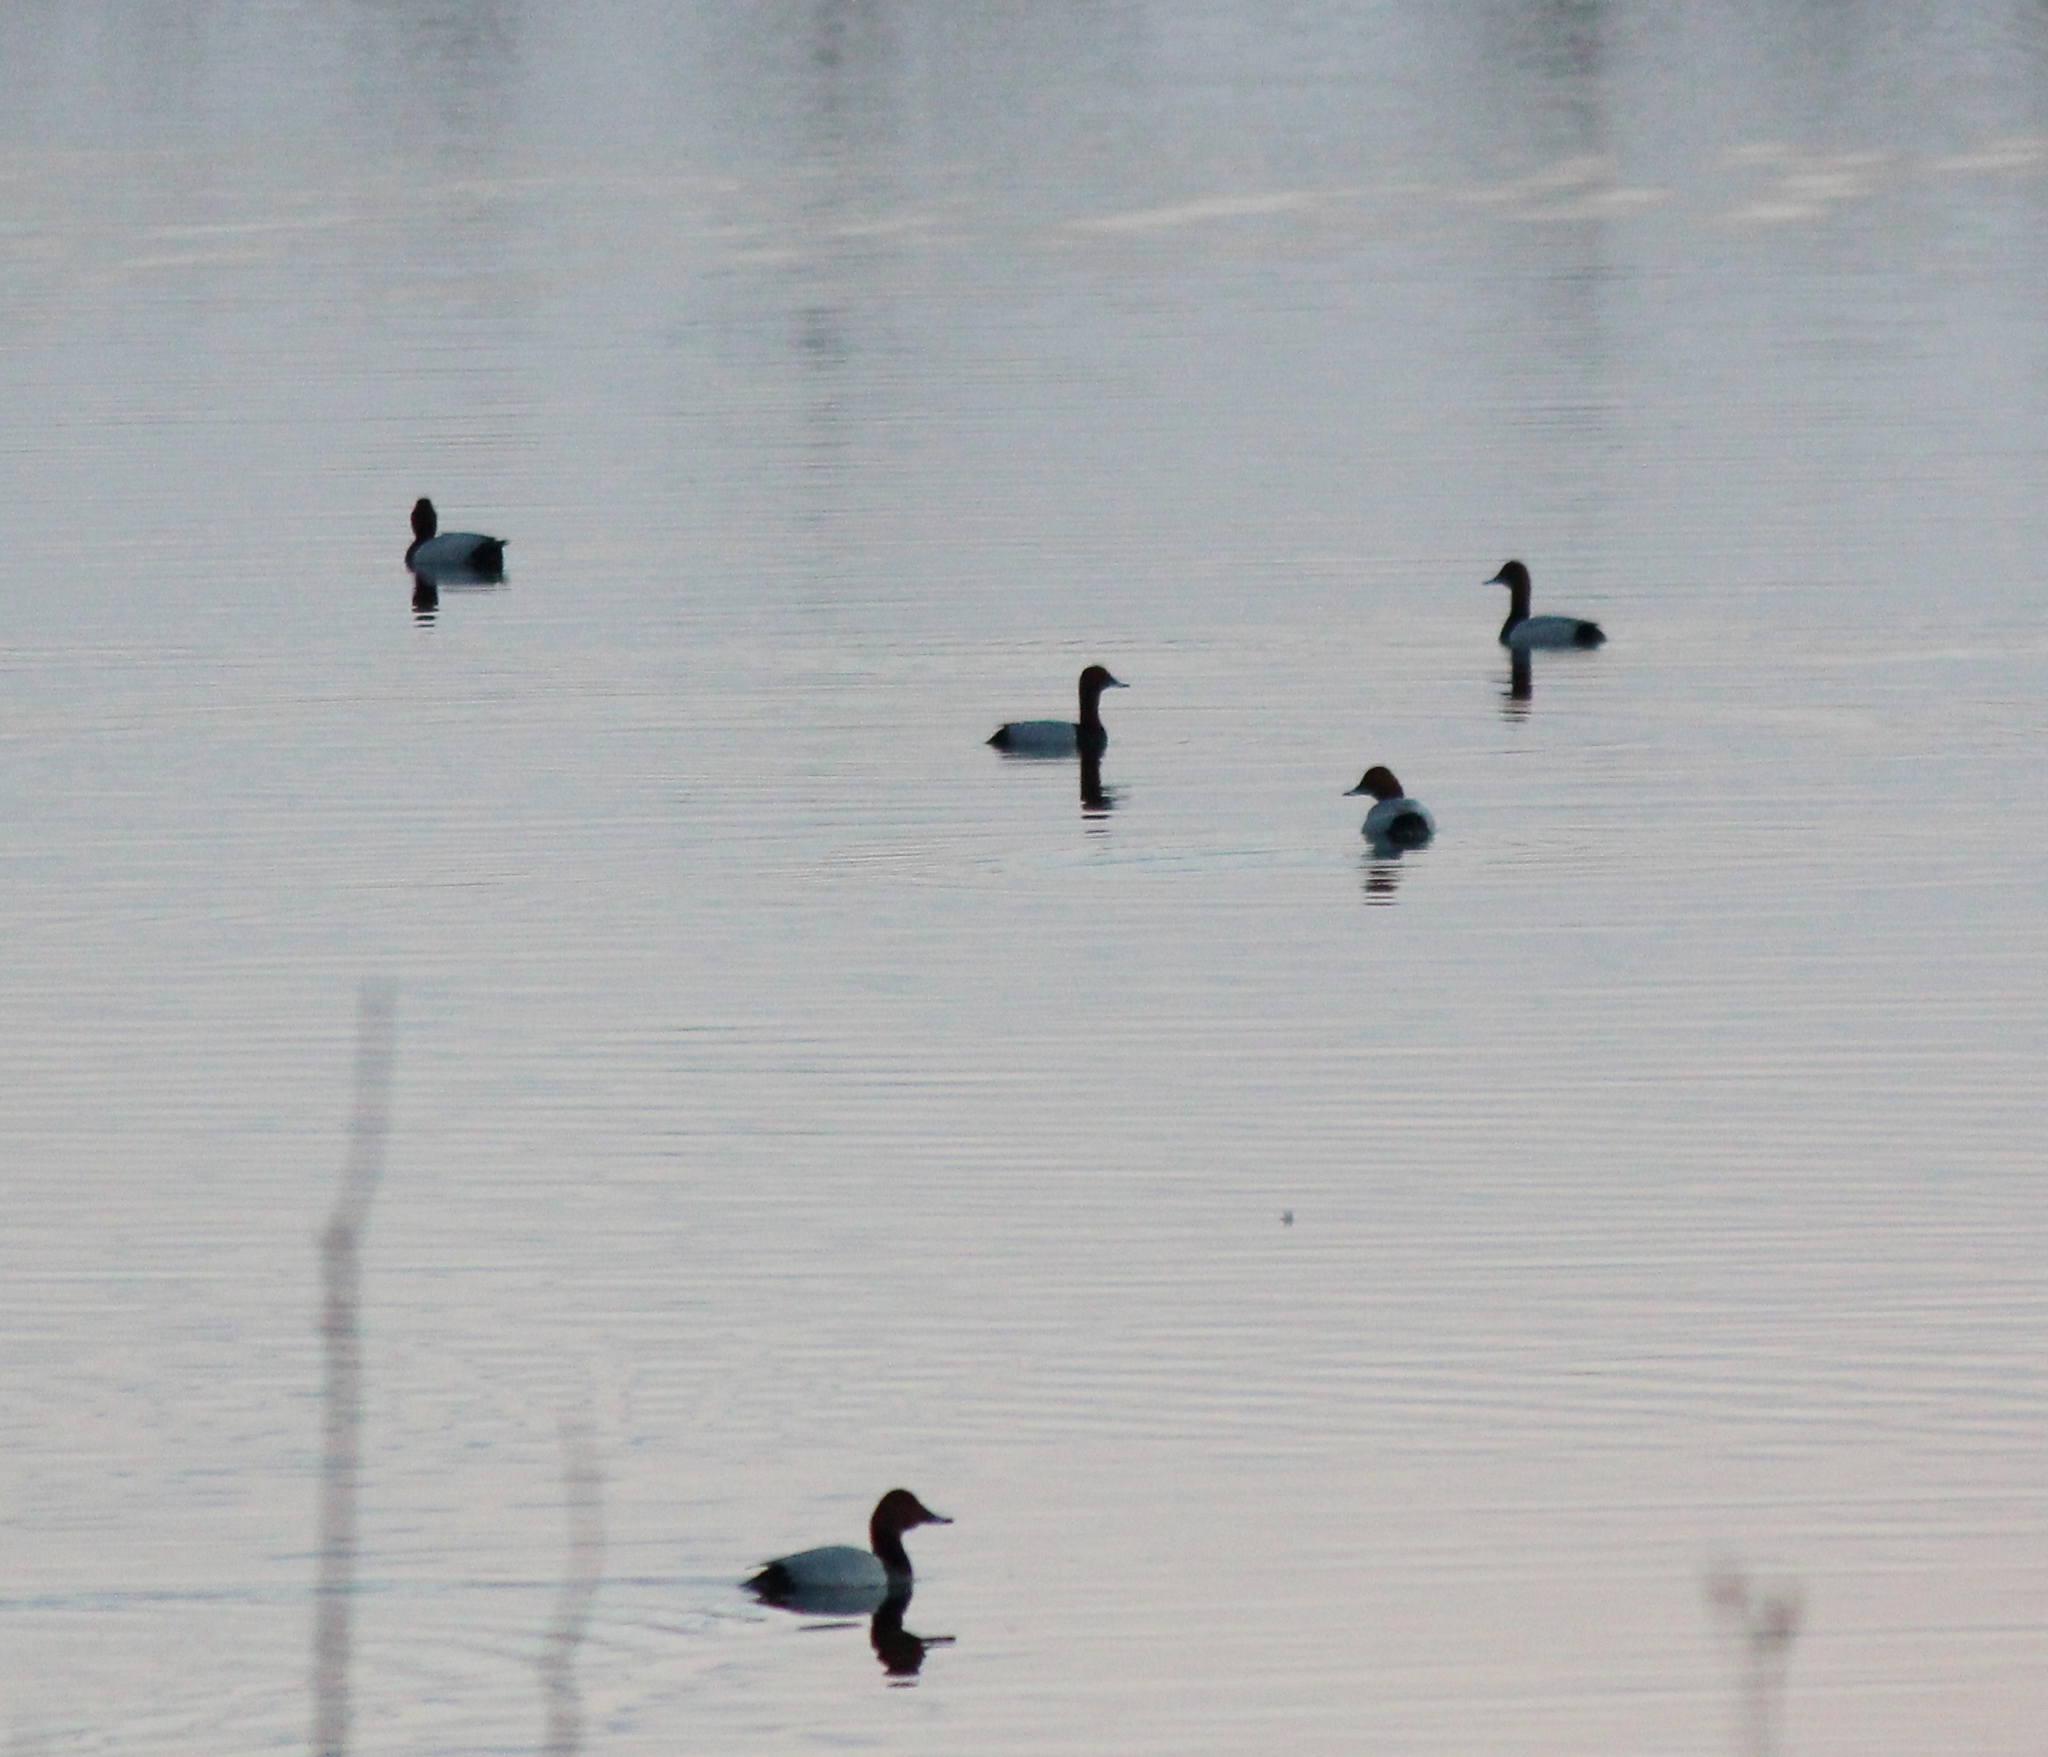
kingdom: Animalia
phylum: Chordata
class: Aves
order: Anseriformes
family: Anatidae
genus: Aythya
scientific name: Aythya ferina
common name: Common pochard
